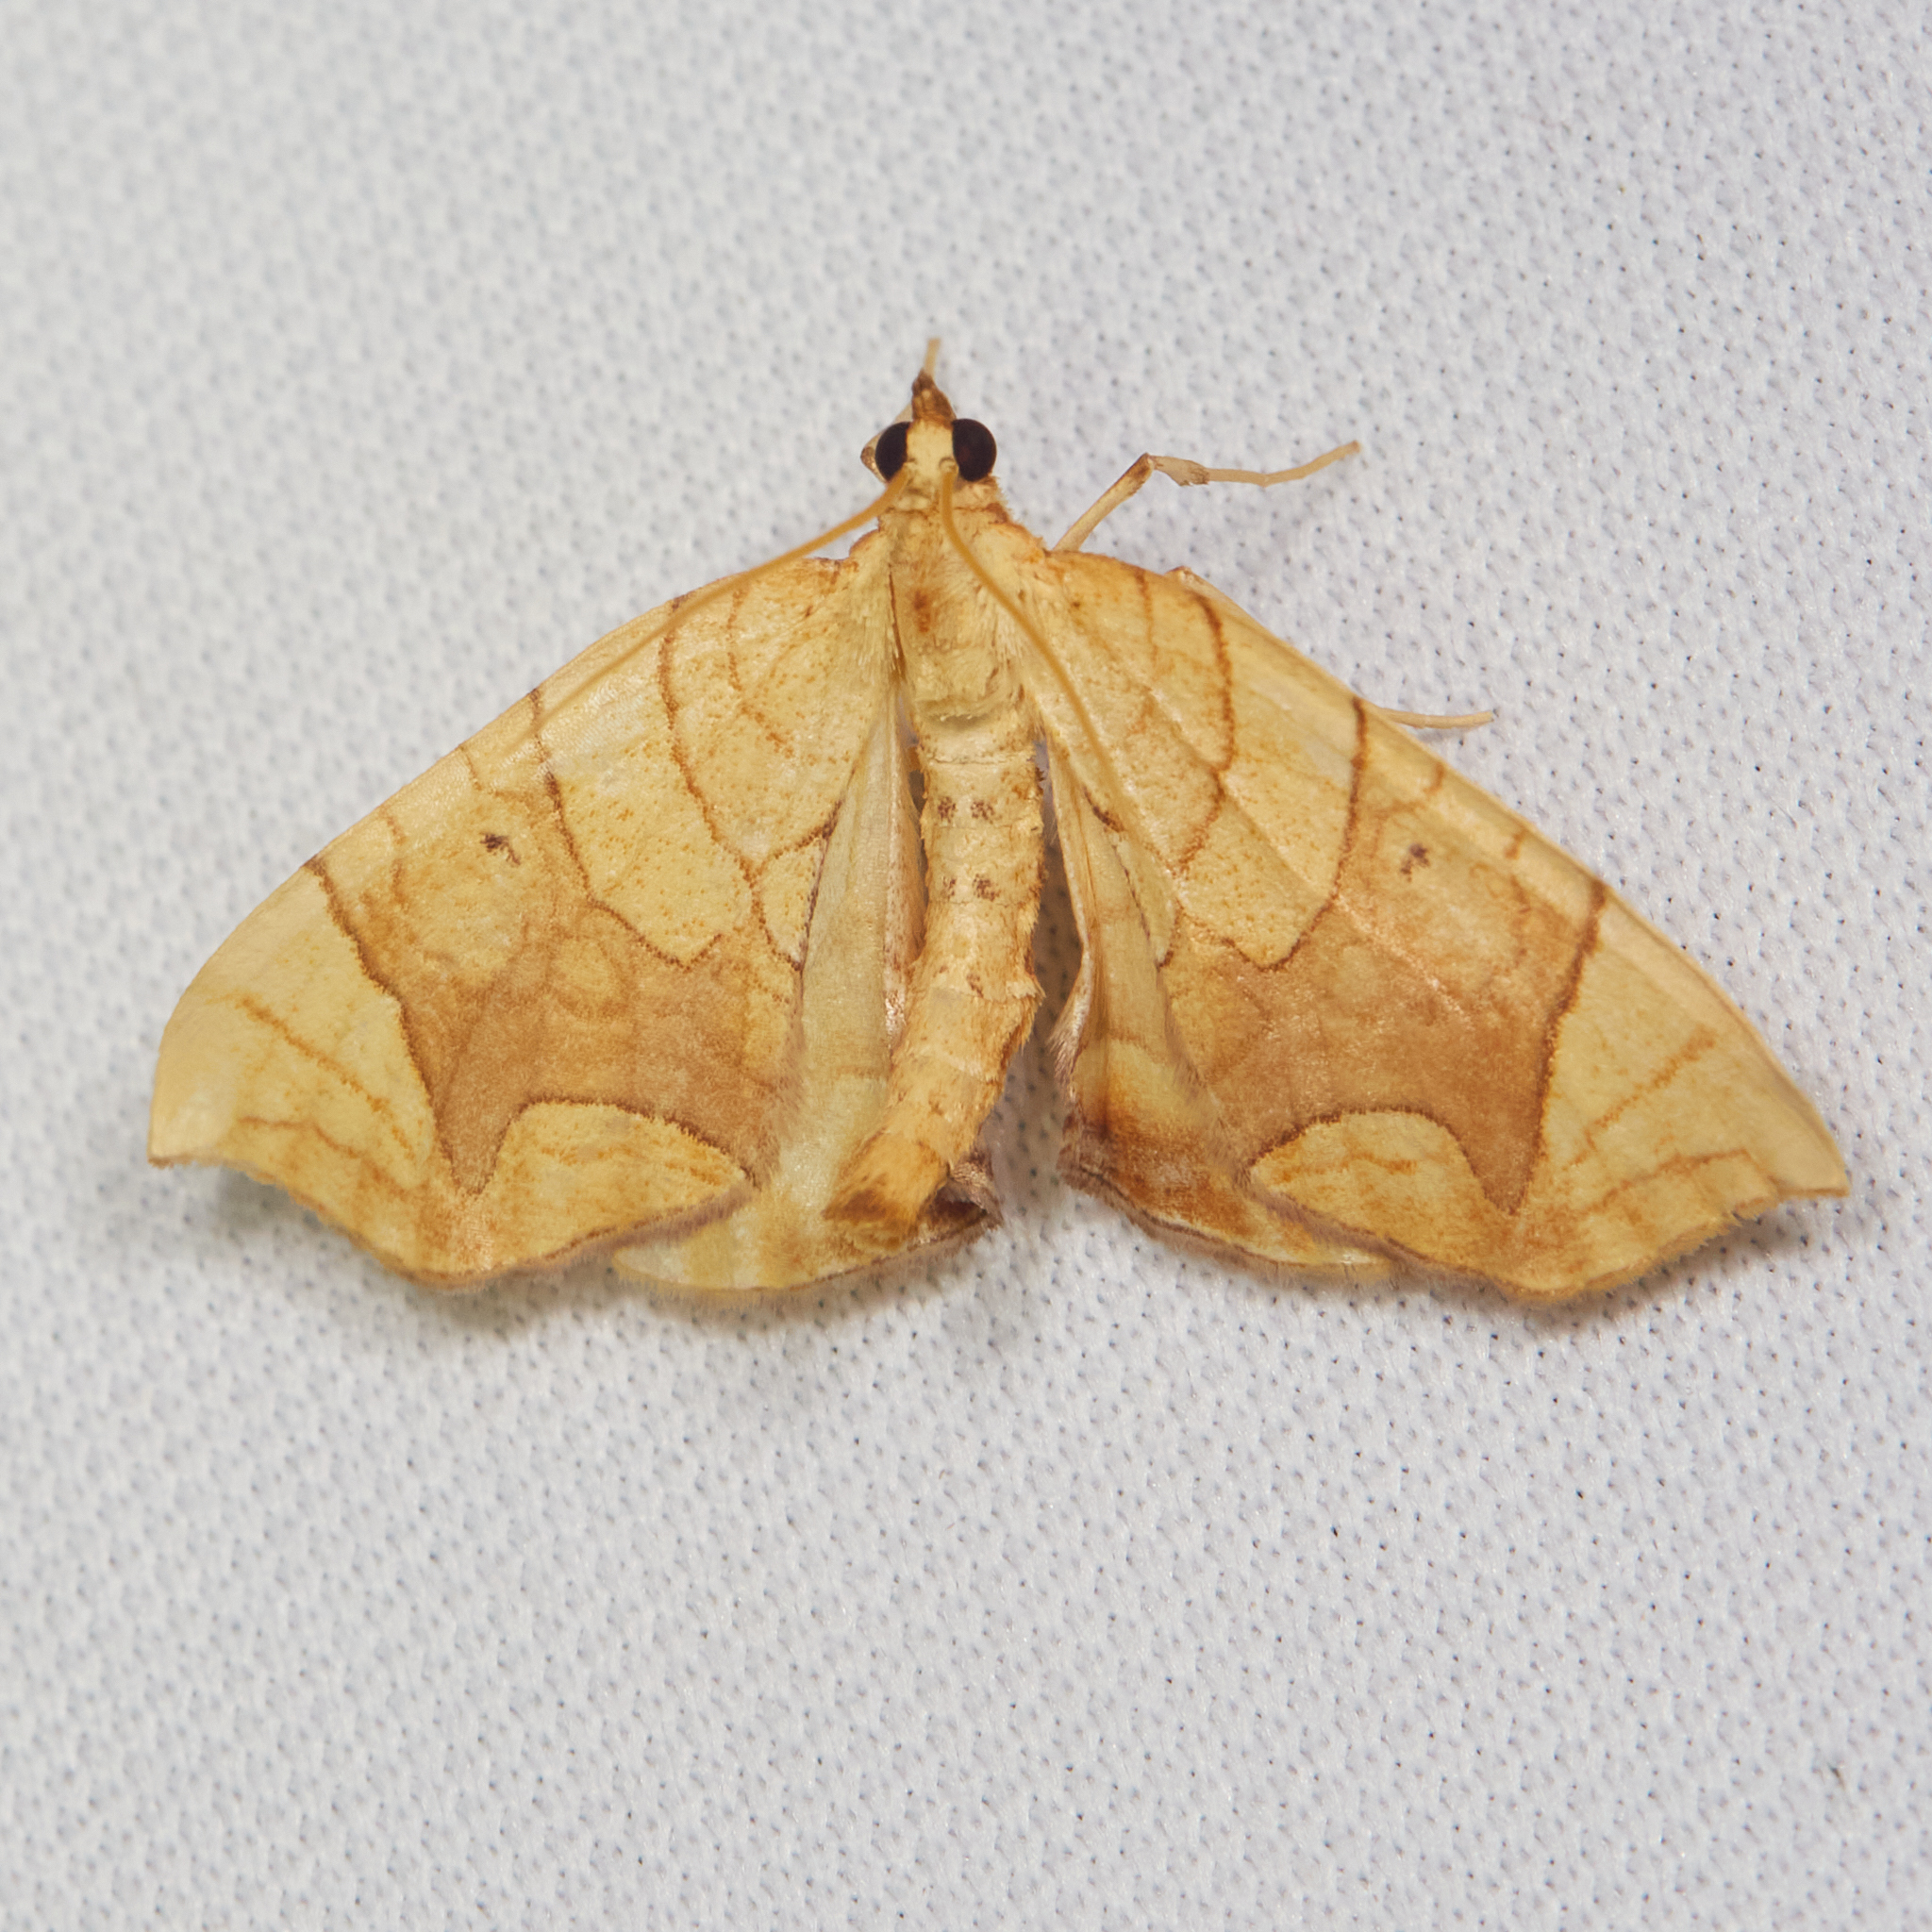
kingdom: Animalia
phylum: Arthropoda
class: Insecta
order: Lepidoptera
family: Geometridae
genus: Eulithis
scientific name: Eulithis
